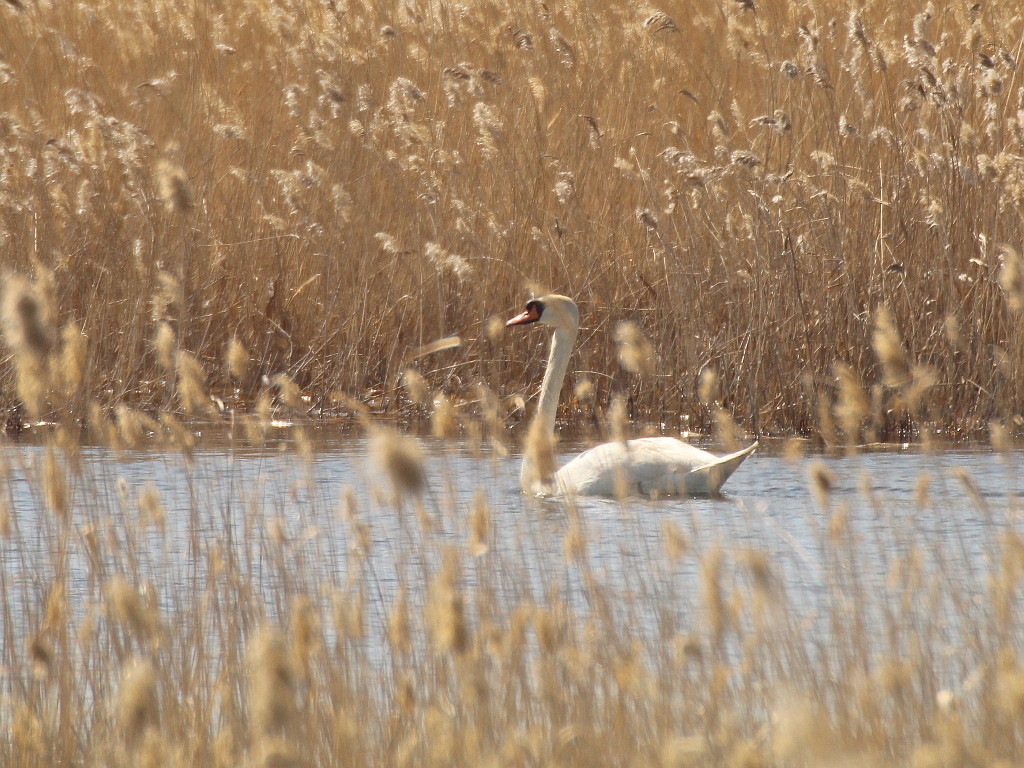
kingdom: Animalia
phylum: Chordata
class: Aves
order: Anseriformes
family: Anatidae
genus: Cygnus
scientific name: Cygnus olor
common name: Mute swan
